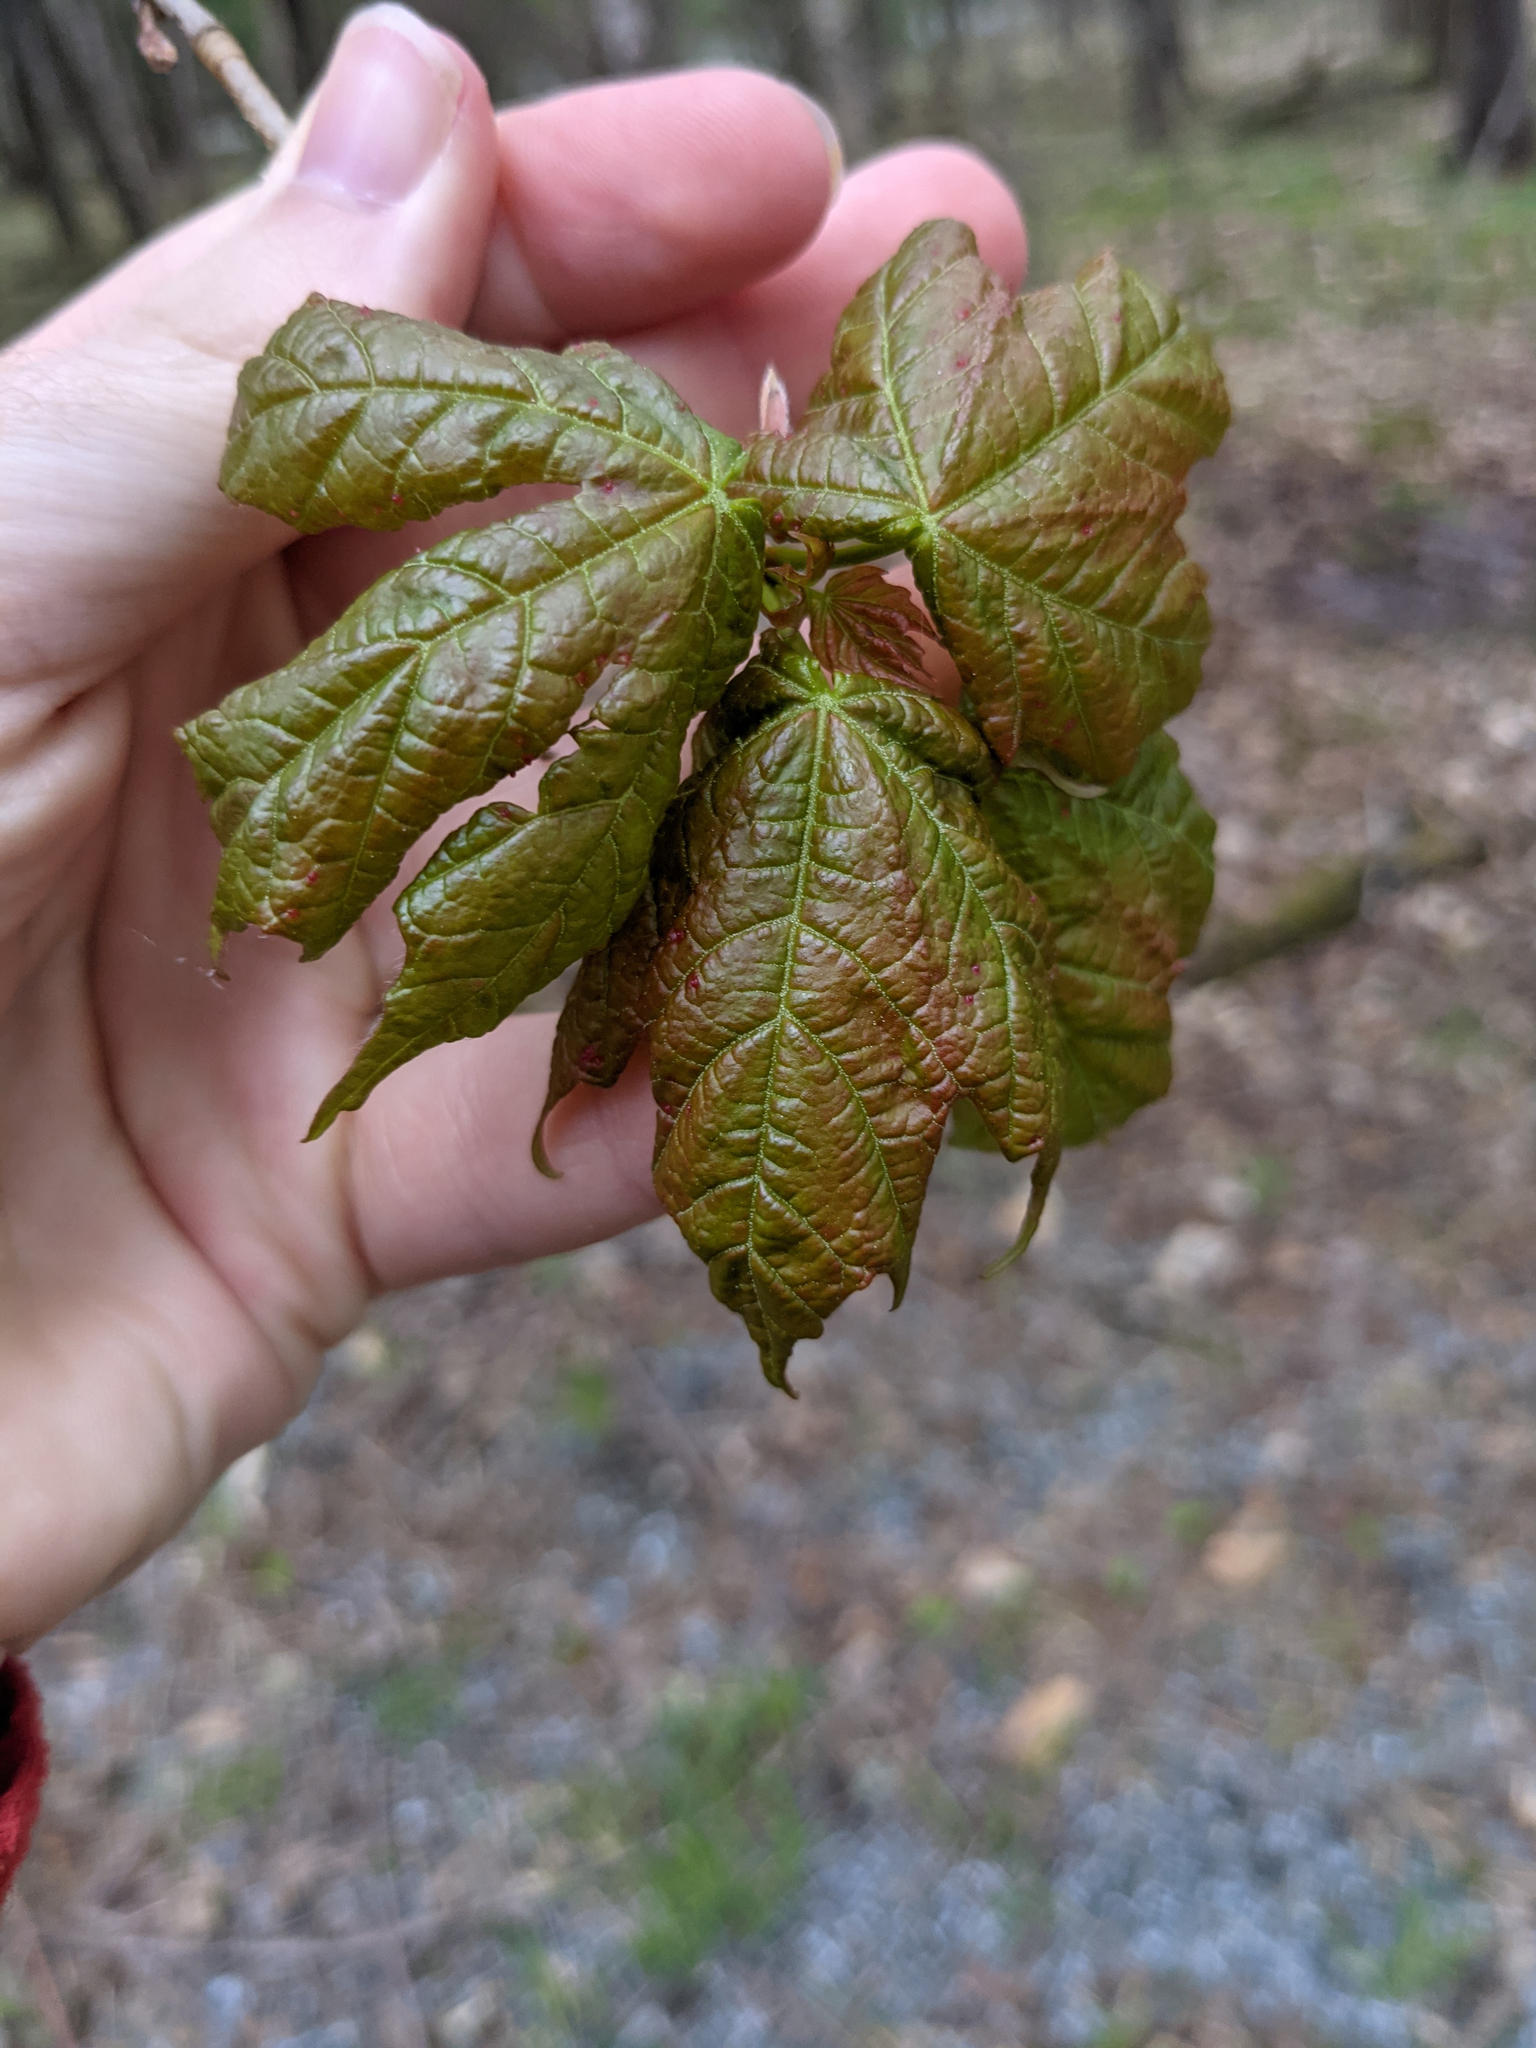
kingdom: Plantae
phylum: Tracheophyta
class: Magnoliopsida
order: Sapindales
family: Sapindaceae
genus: Acer
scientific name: Acer saccharum
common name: Sugar maple
